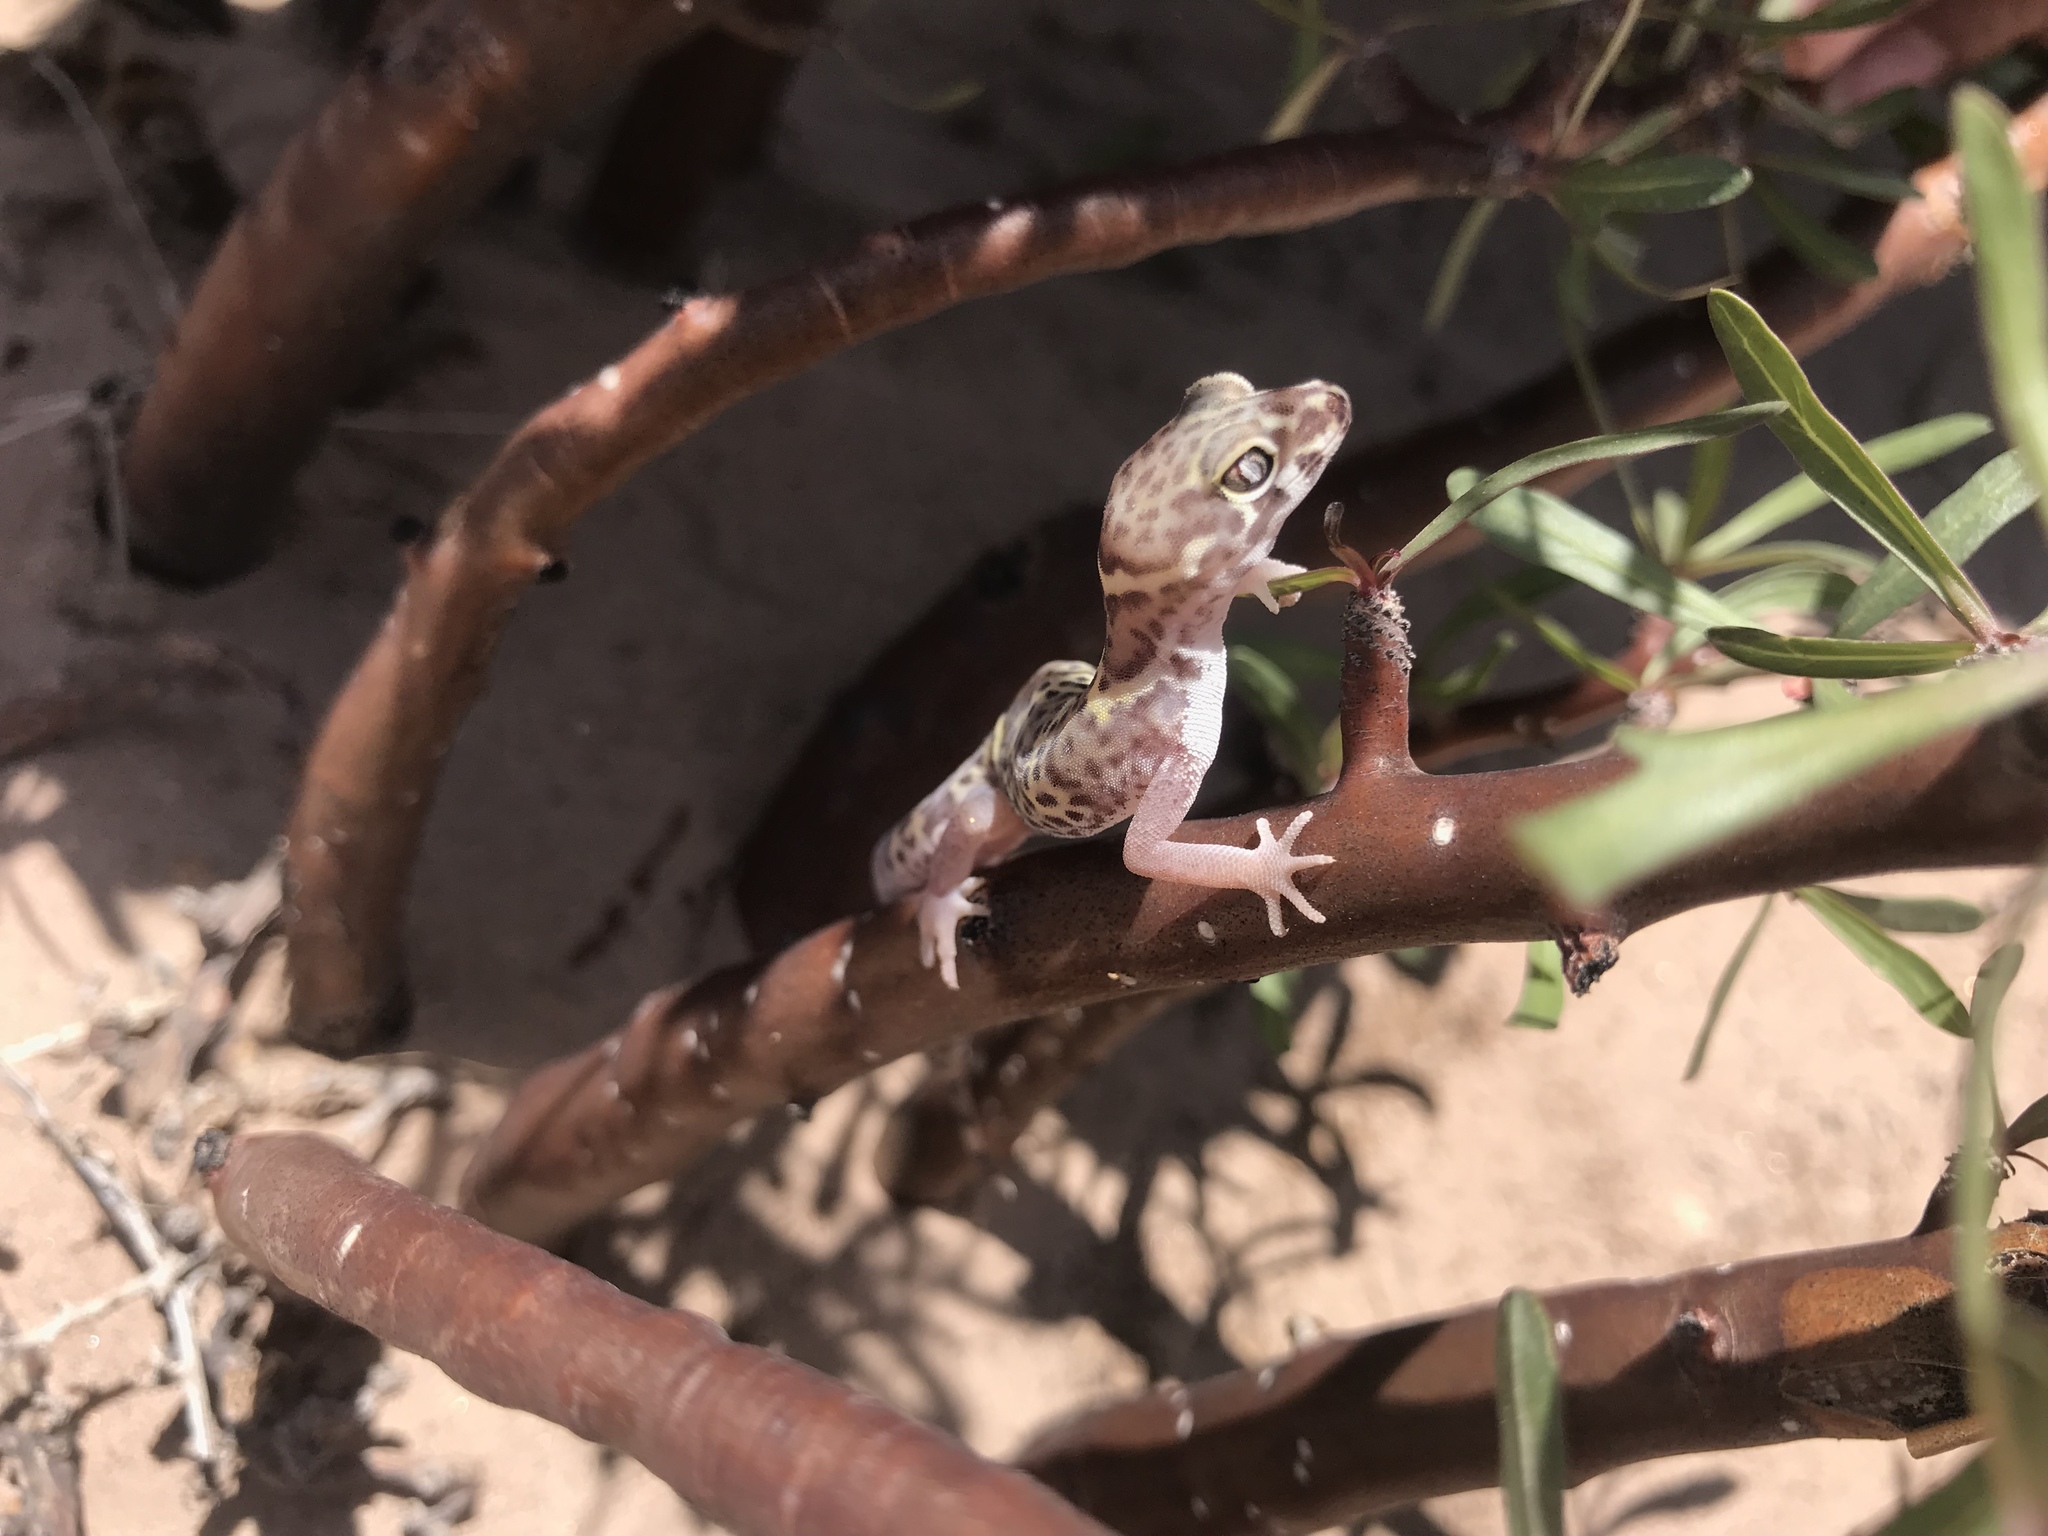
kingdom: Animalia
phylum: Chordata
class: Squamata
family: Eublepharidae
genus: Coleonyx
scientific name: Coleonyx brevis
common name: Texas banded gecko
